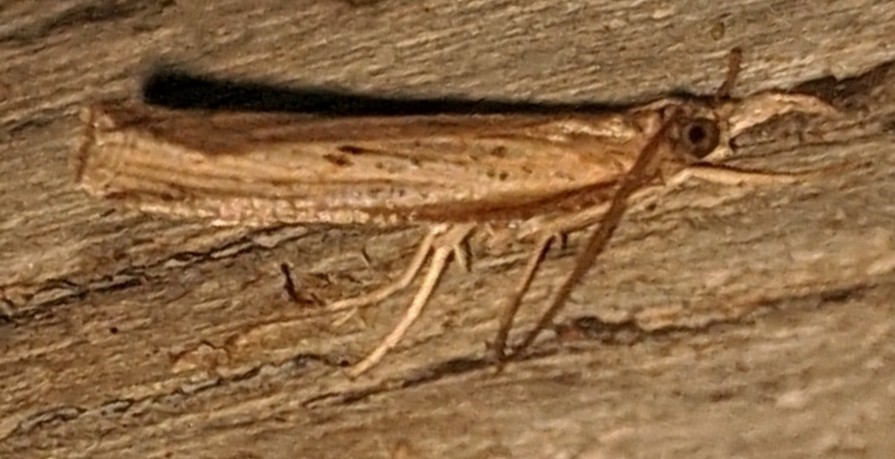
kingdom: Animalia
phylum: Arthropoda
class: Insecta
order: Lepidoptera
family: Crambidae
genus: Fissicrambus
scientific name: Fissicrambus mutabilis
